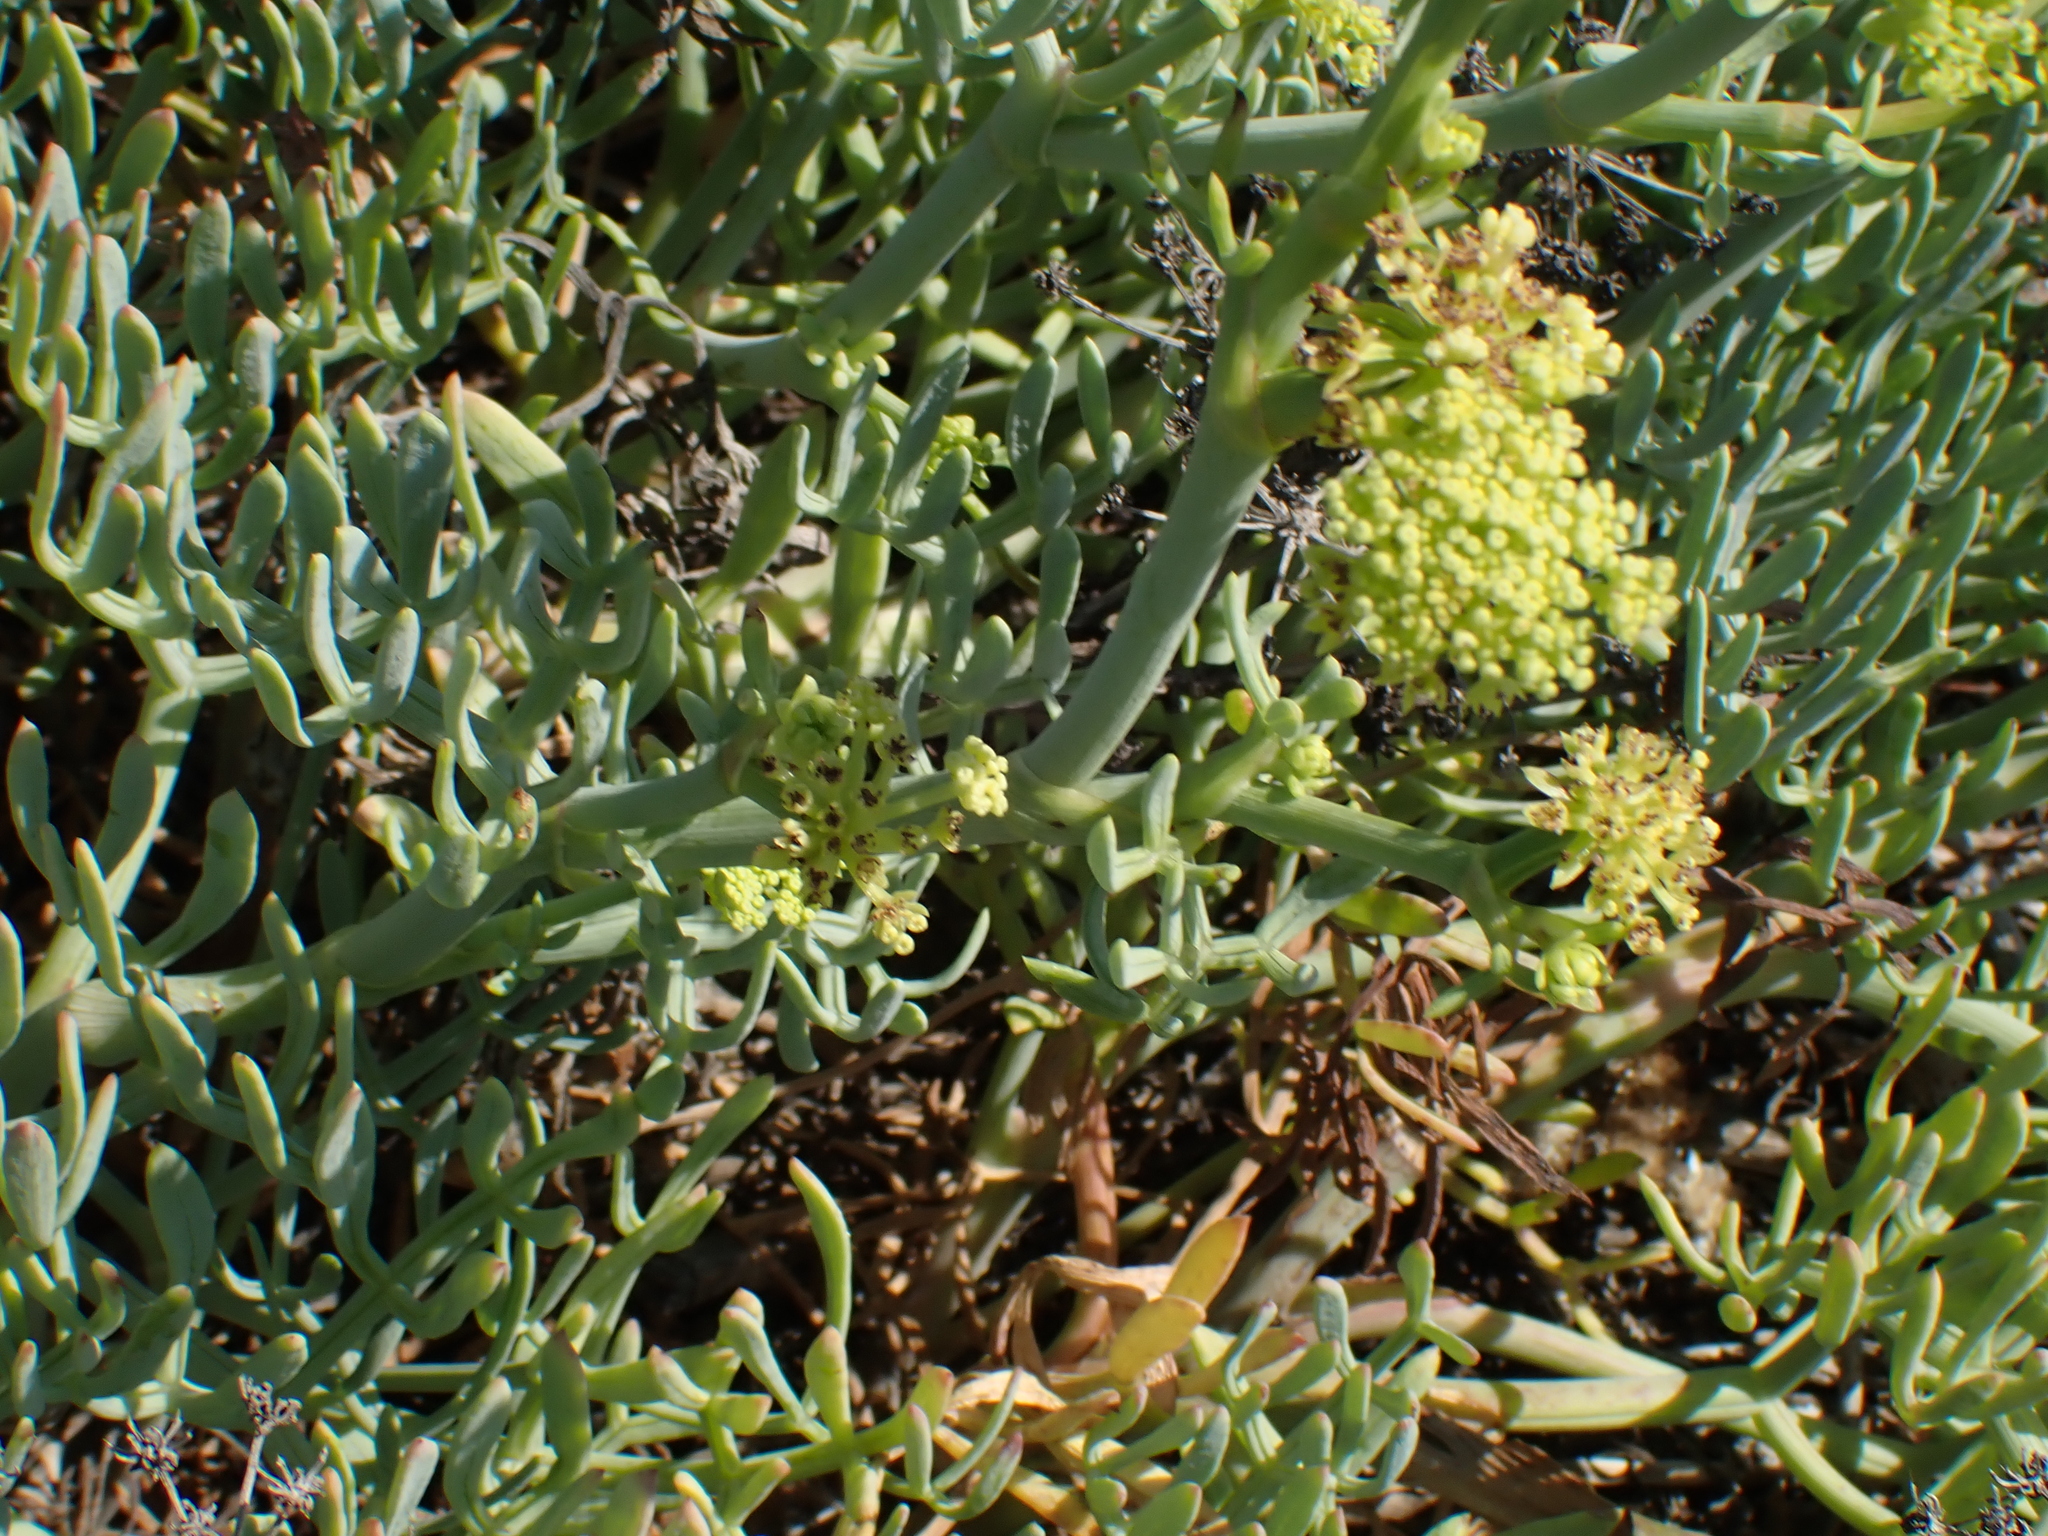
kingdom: Plantae
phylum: Tracheophyta
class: Magnoliopsida
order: Apiales
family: Apiaceae
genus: Crithmum
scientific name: Crithmum maritimum
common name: Rock samphire
